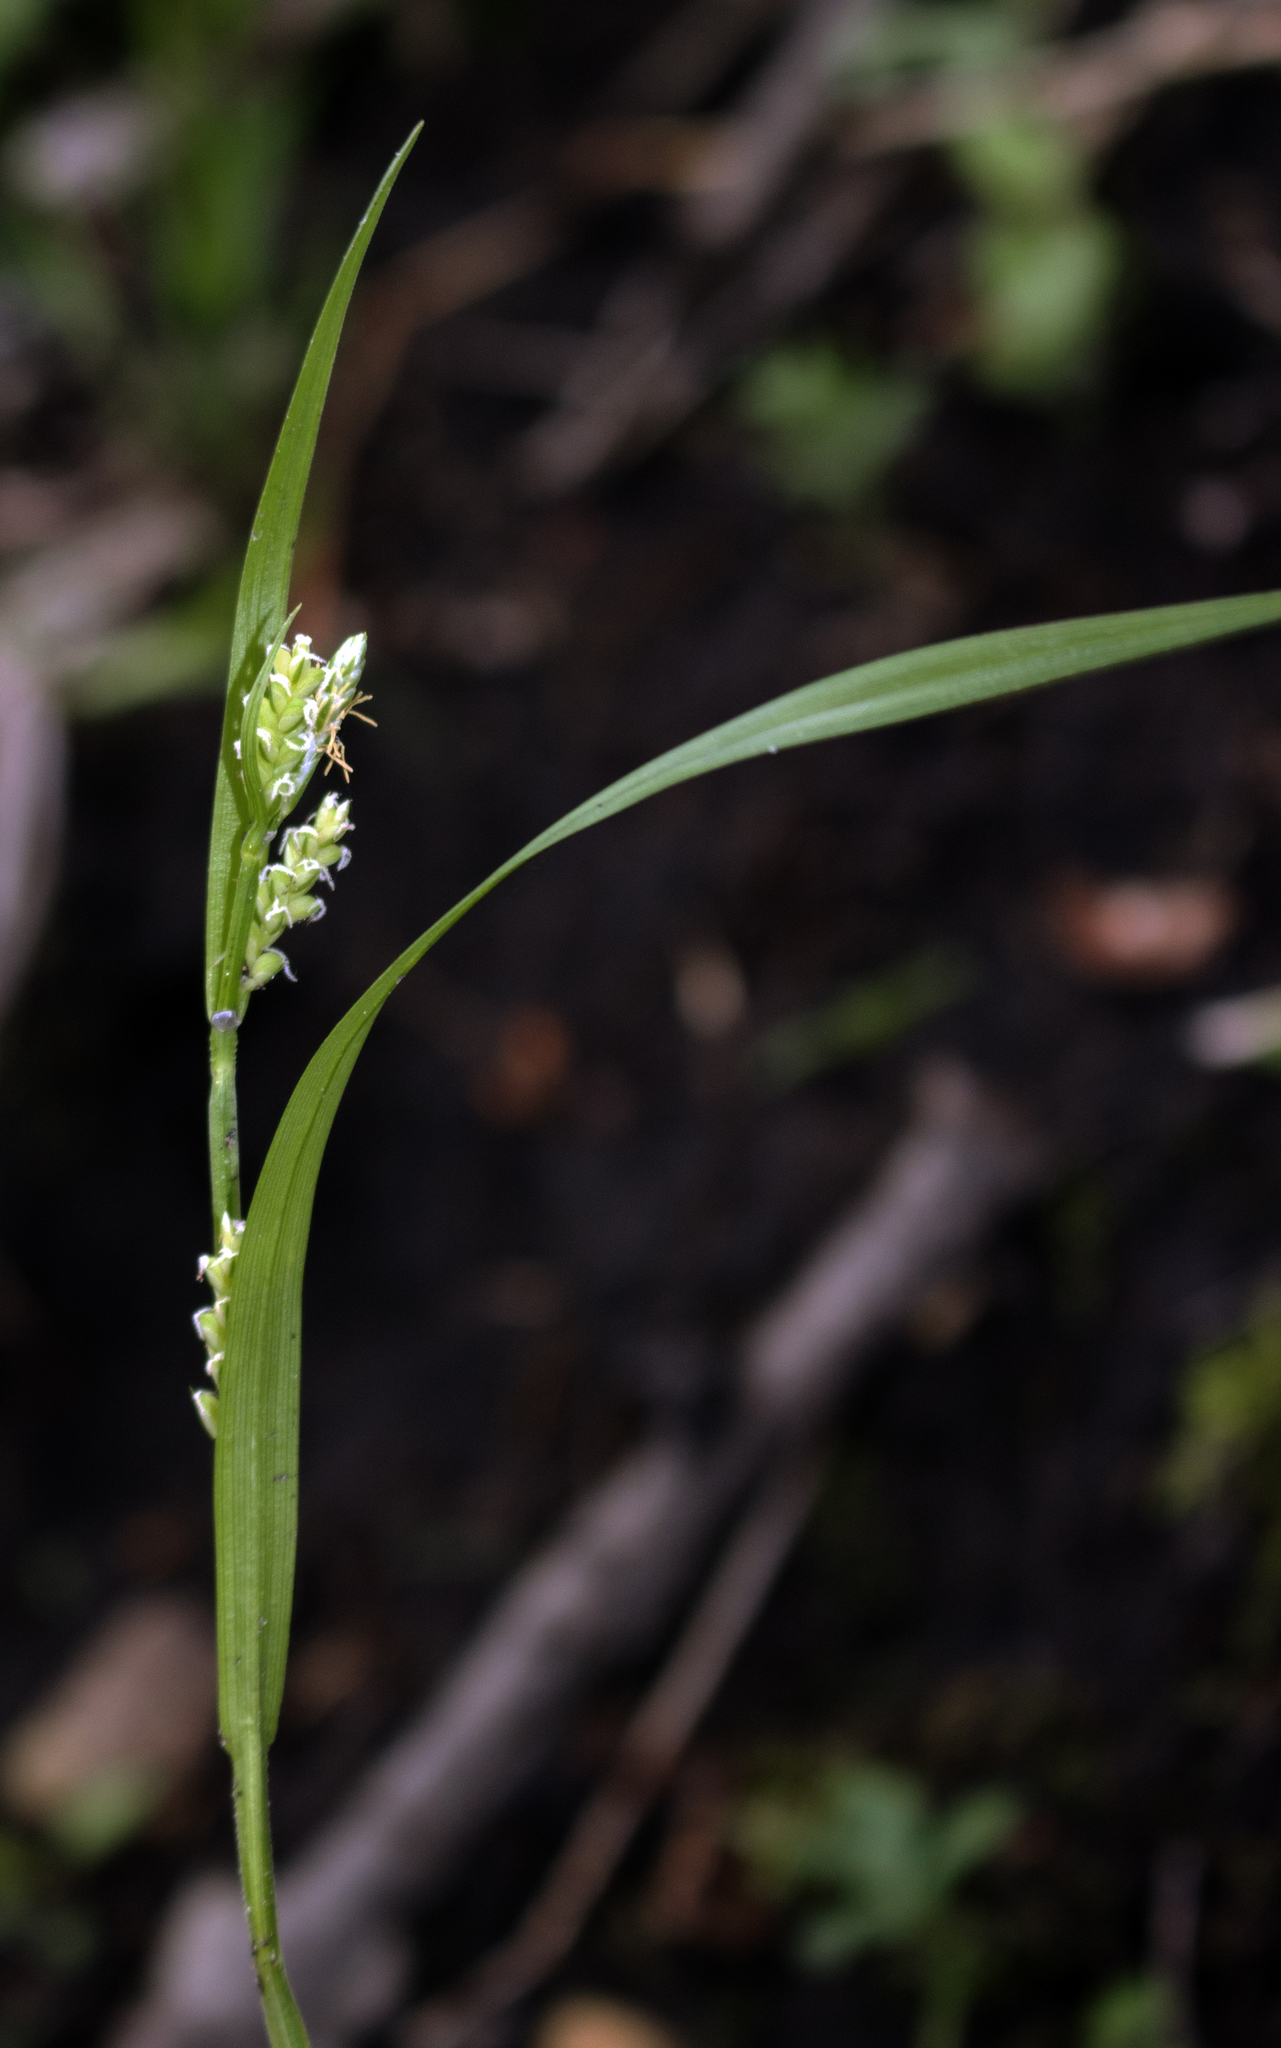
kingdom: Plantae
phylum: Tracheophyta
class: Liliopsida
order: Poales
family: Cyperaceae
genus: Carex
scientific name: Carex blanda
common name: Bland sedge
